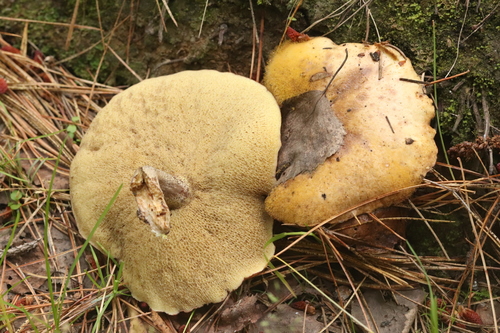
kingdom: Fungi
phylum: Basidiomycota
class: Agaricomycetes
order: Boletales
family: Suillaceae
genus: Suillus
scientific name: Suillus placidus
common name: Slippery white bolete
